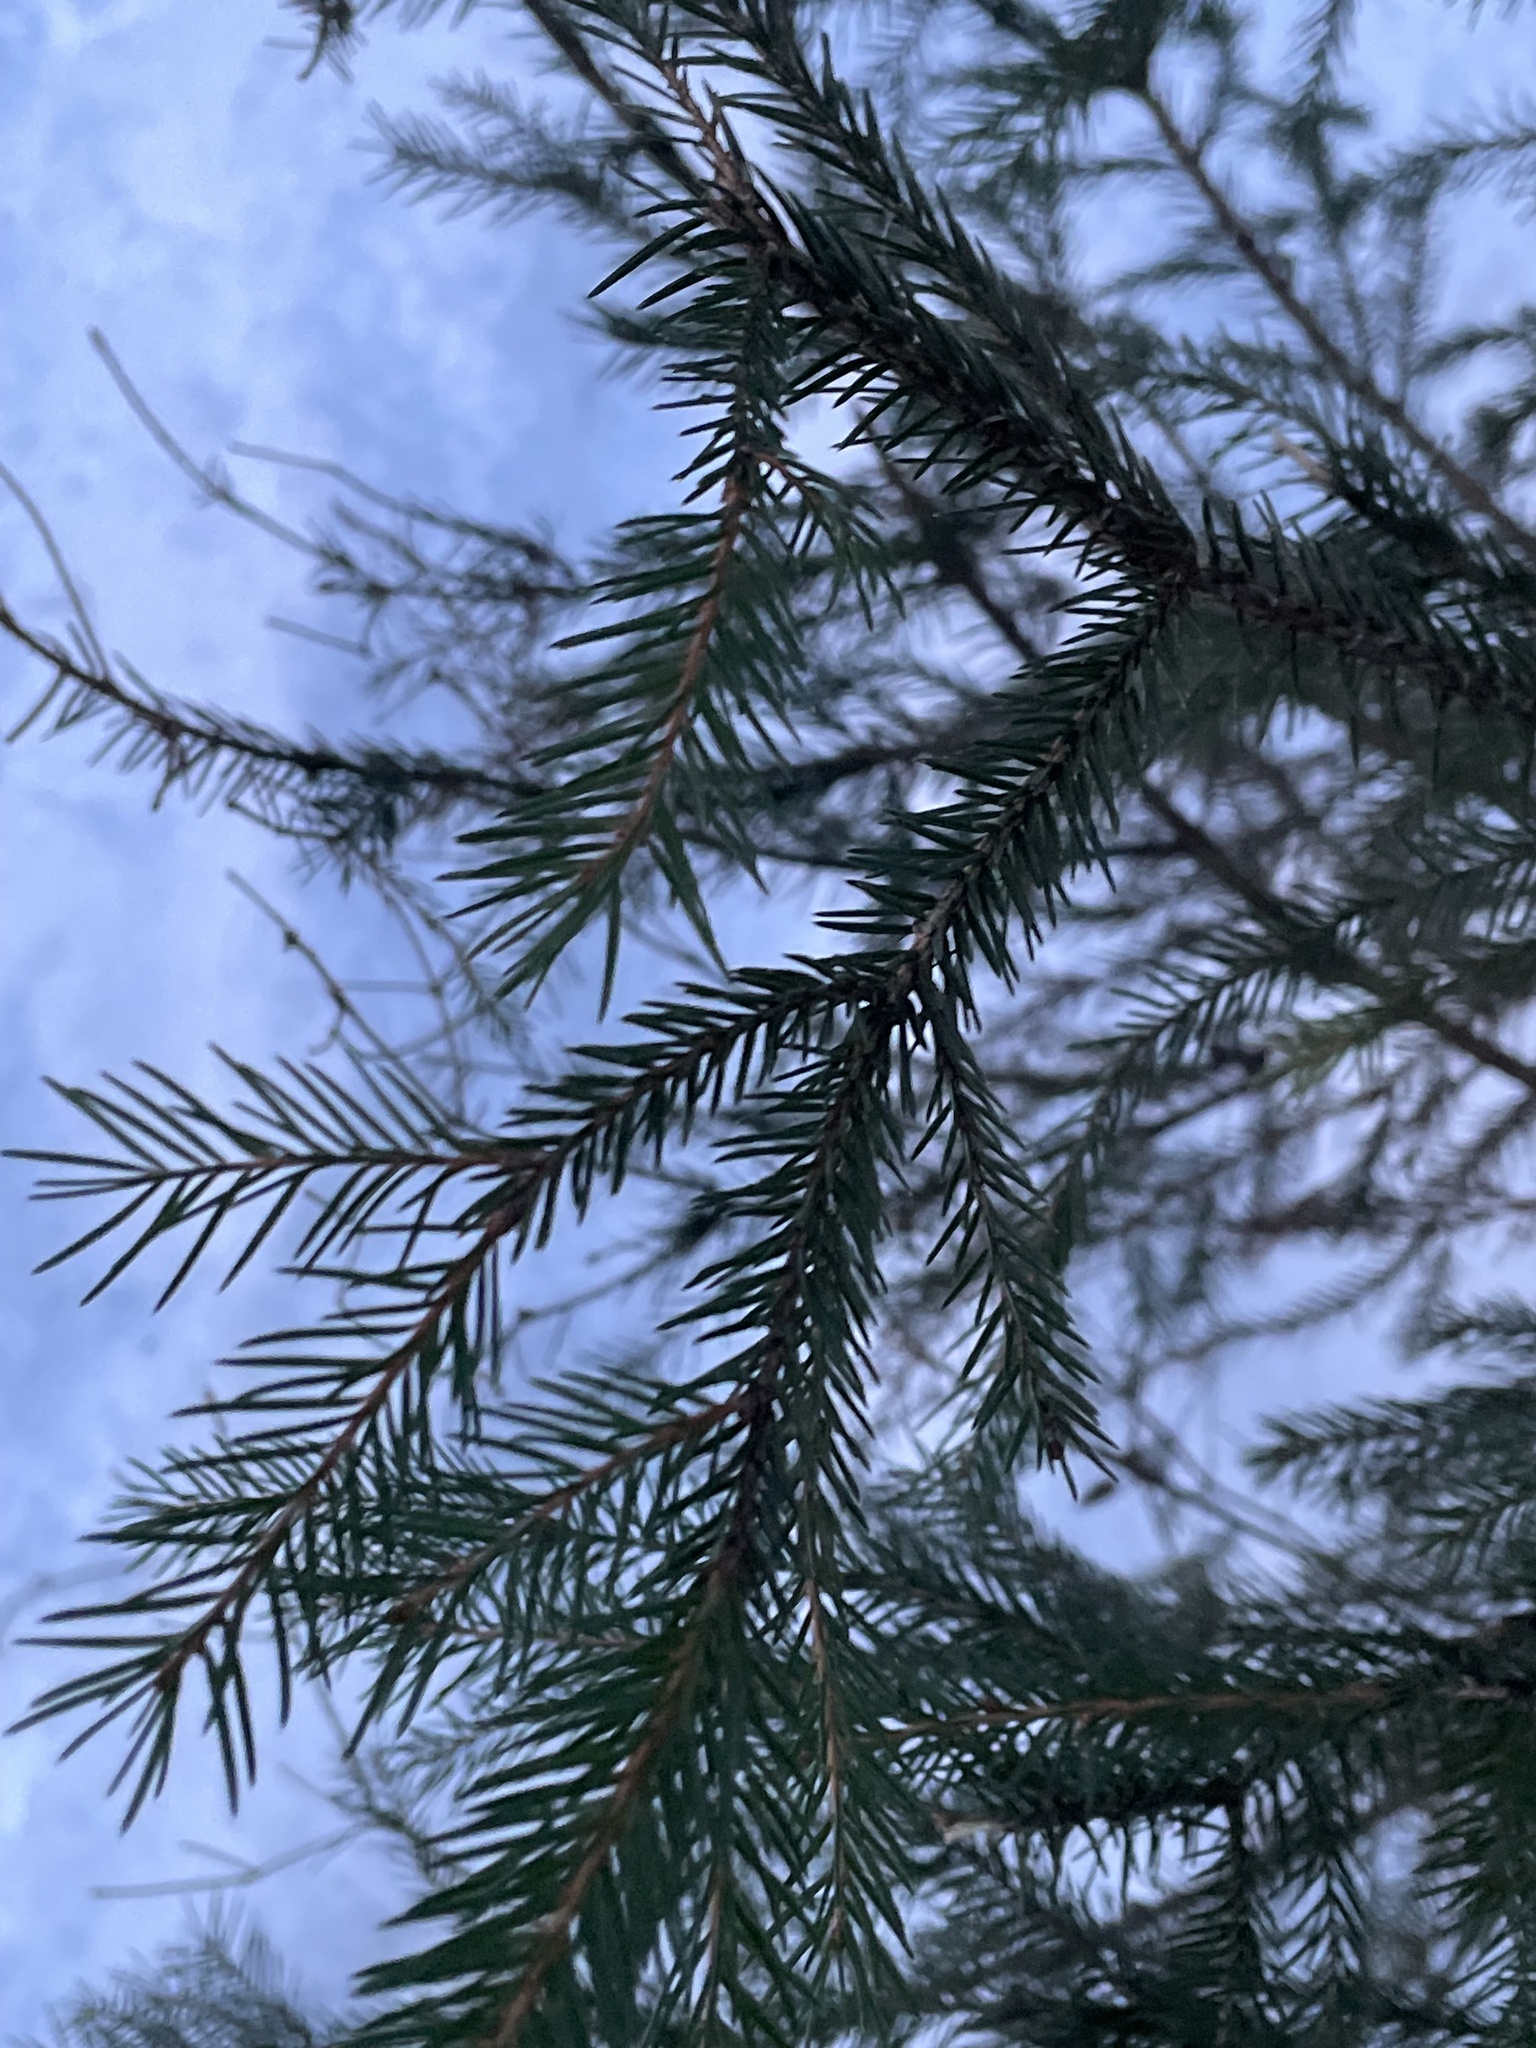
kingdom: Plantae
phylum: Tracheophyta
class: Pinopsida
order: Pinales
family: Pinaceae
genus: Picea
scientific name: Picea
